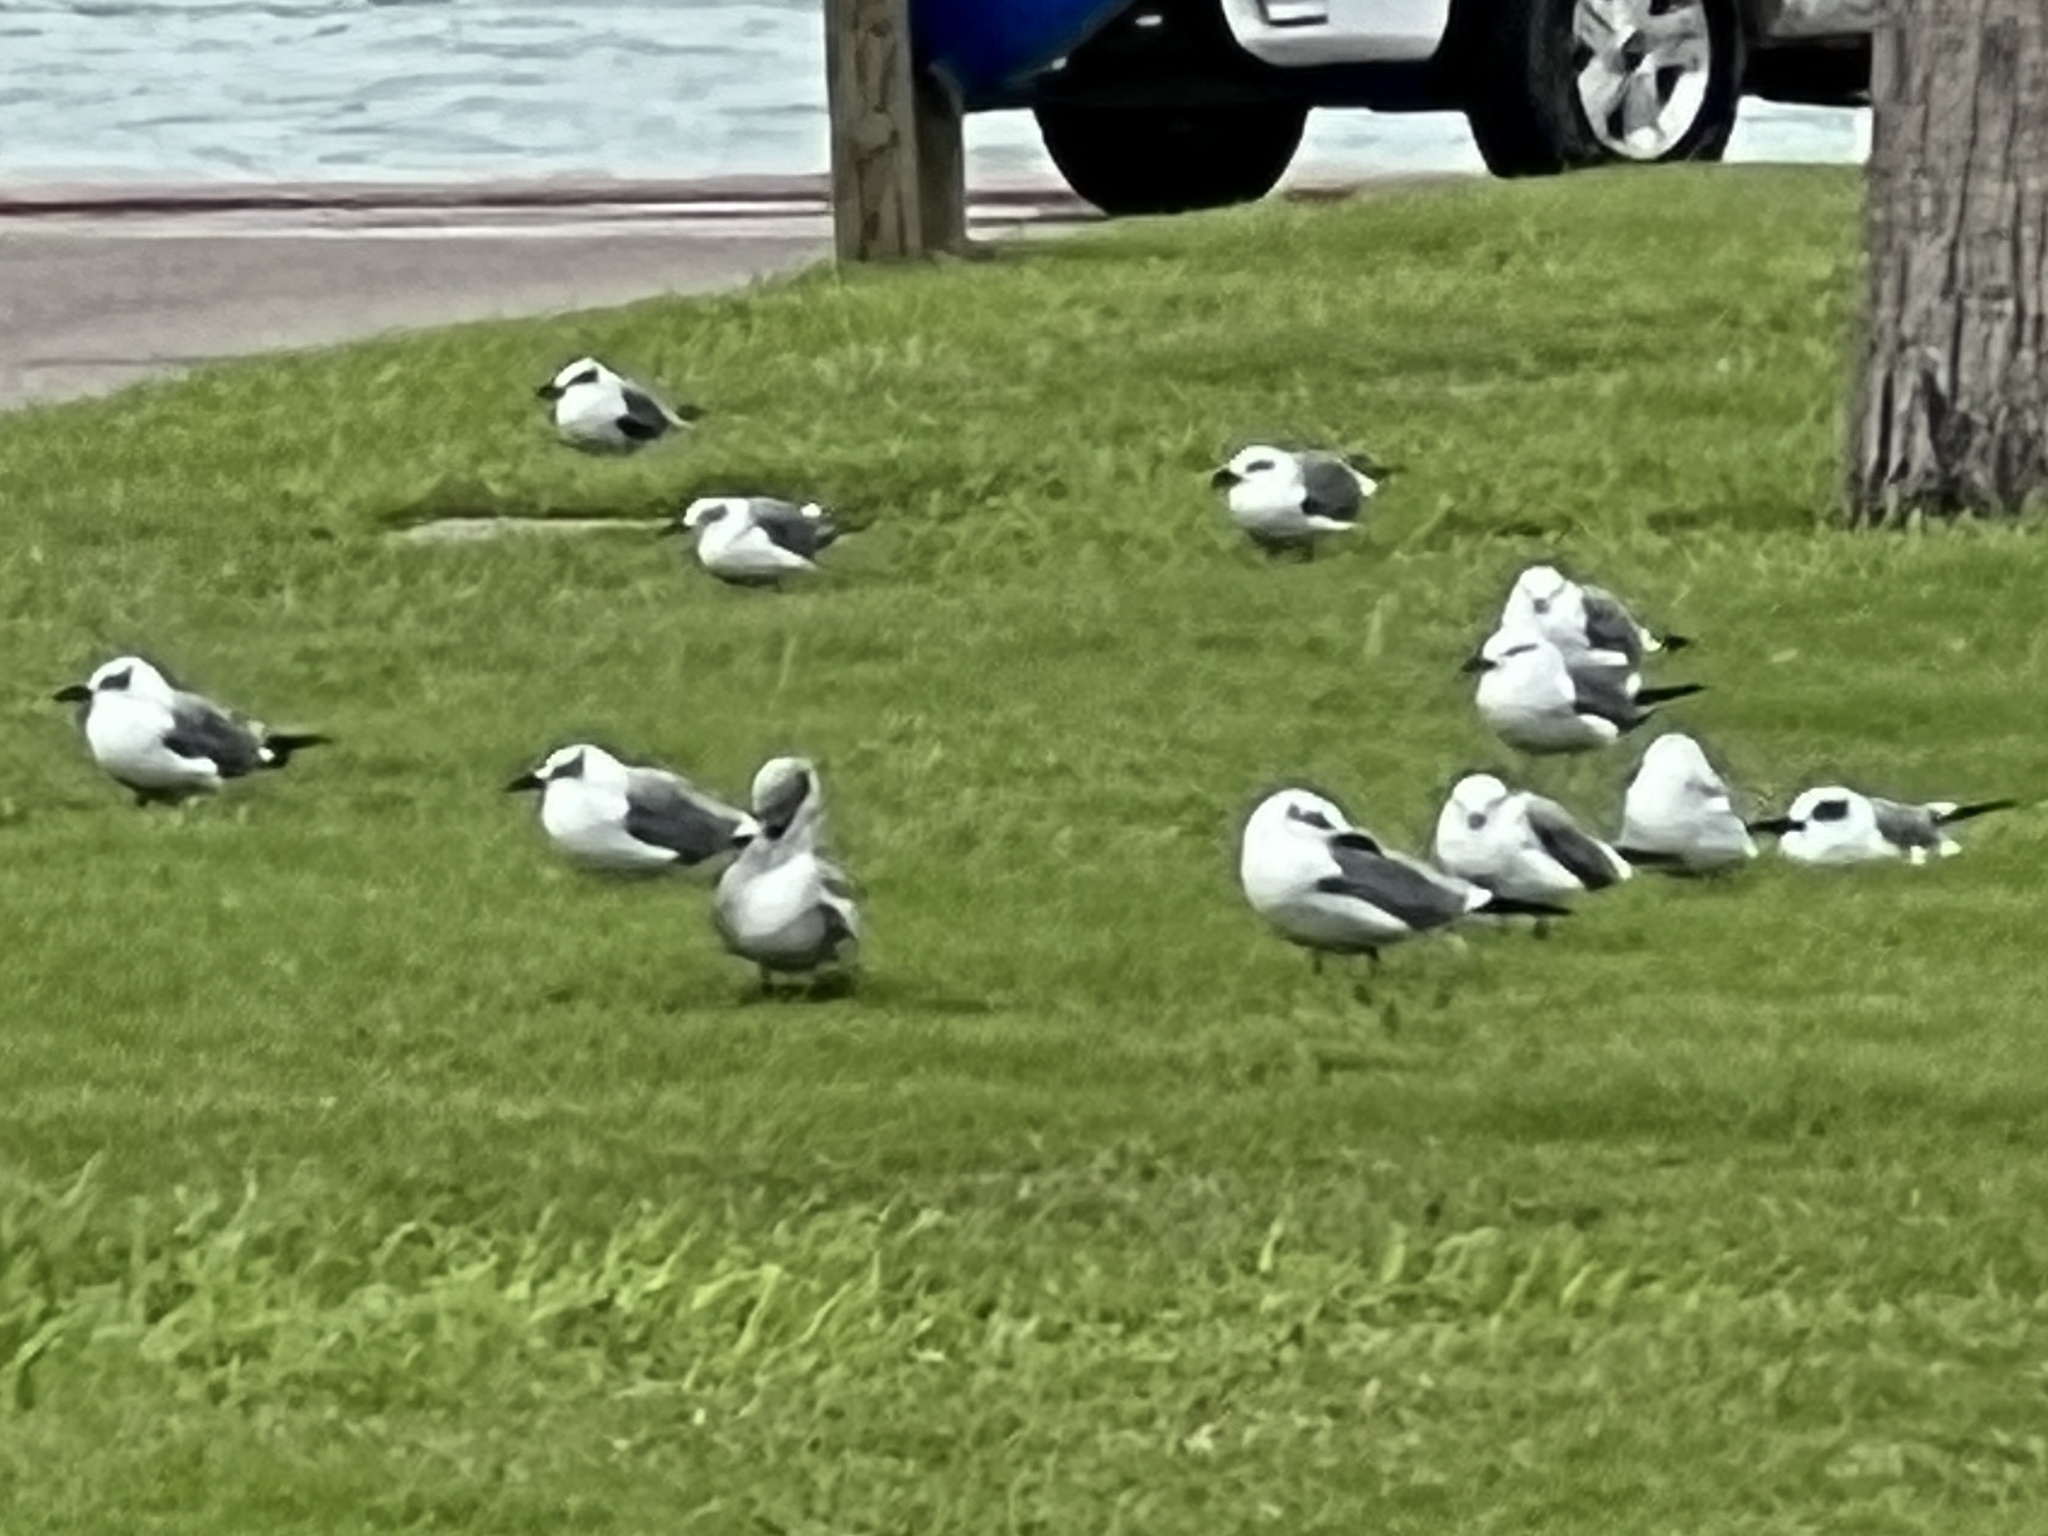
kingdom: Animalia
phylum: Chordata
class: Aves
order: Charadriiformes
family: Laridae
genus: Leucophaeus
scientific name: Leucophaeus atricilla
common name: Laughing gull
